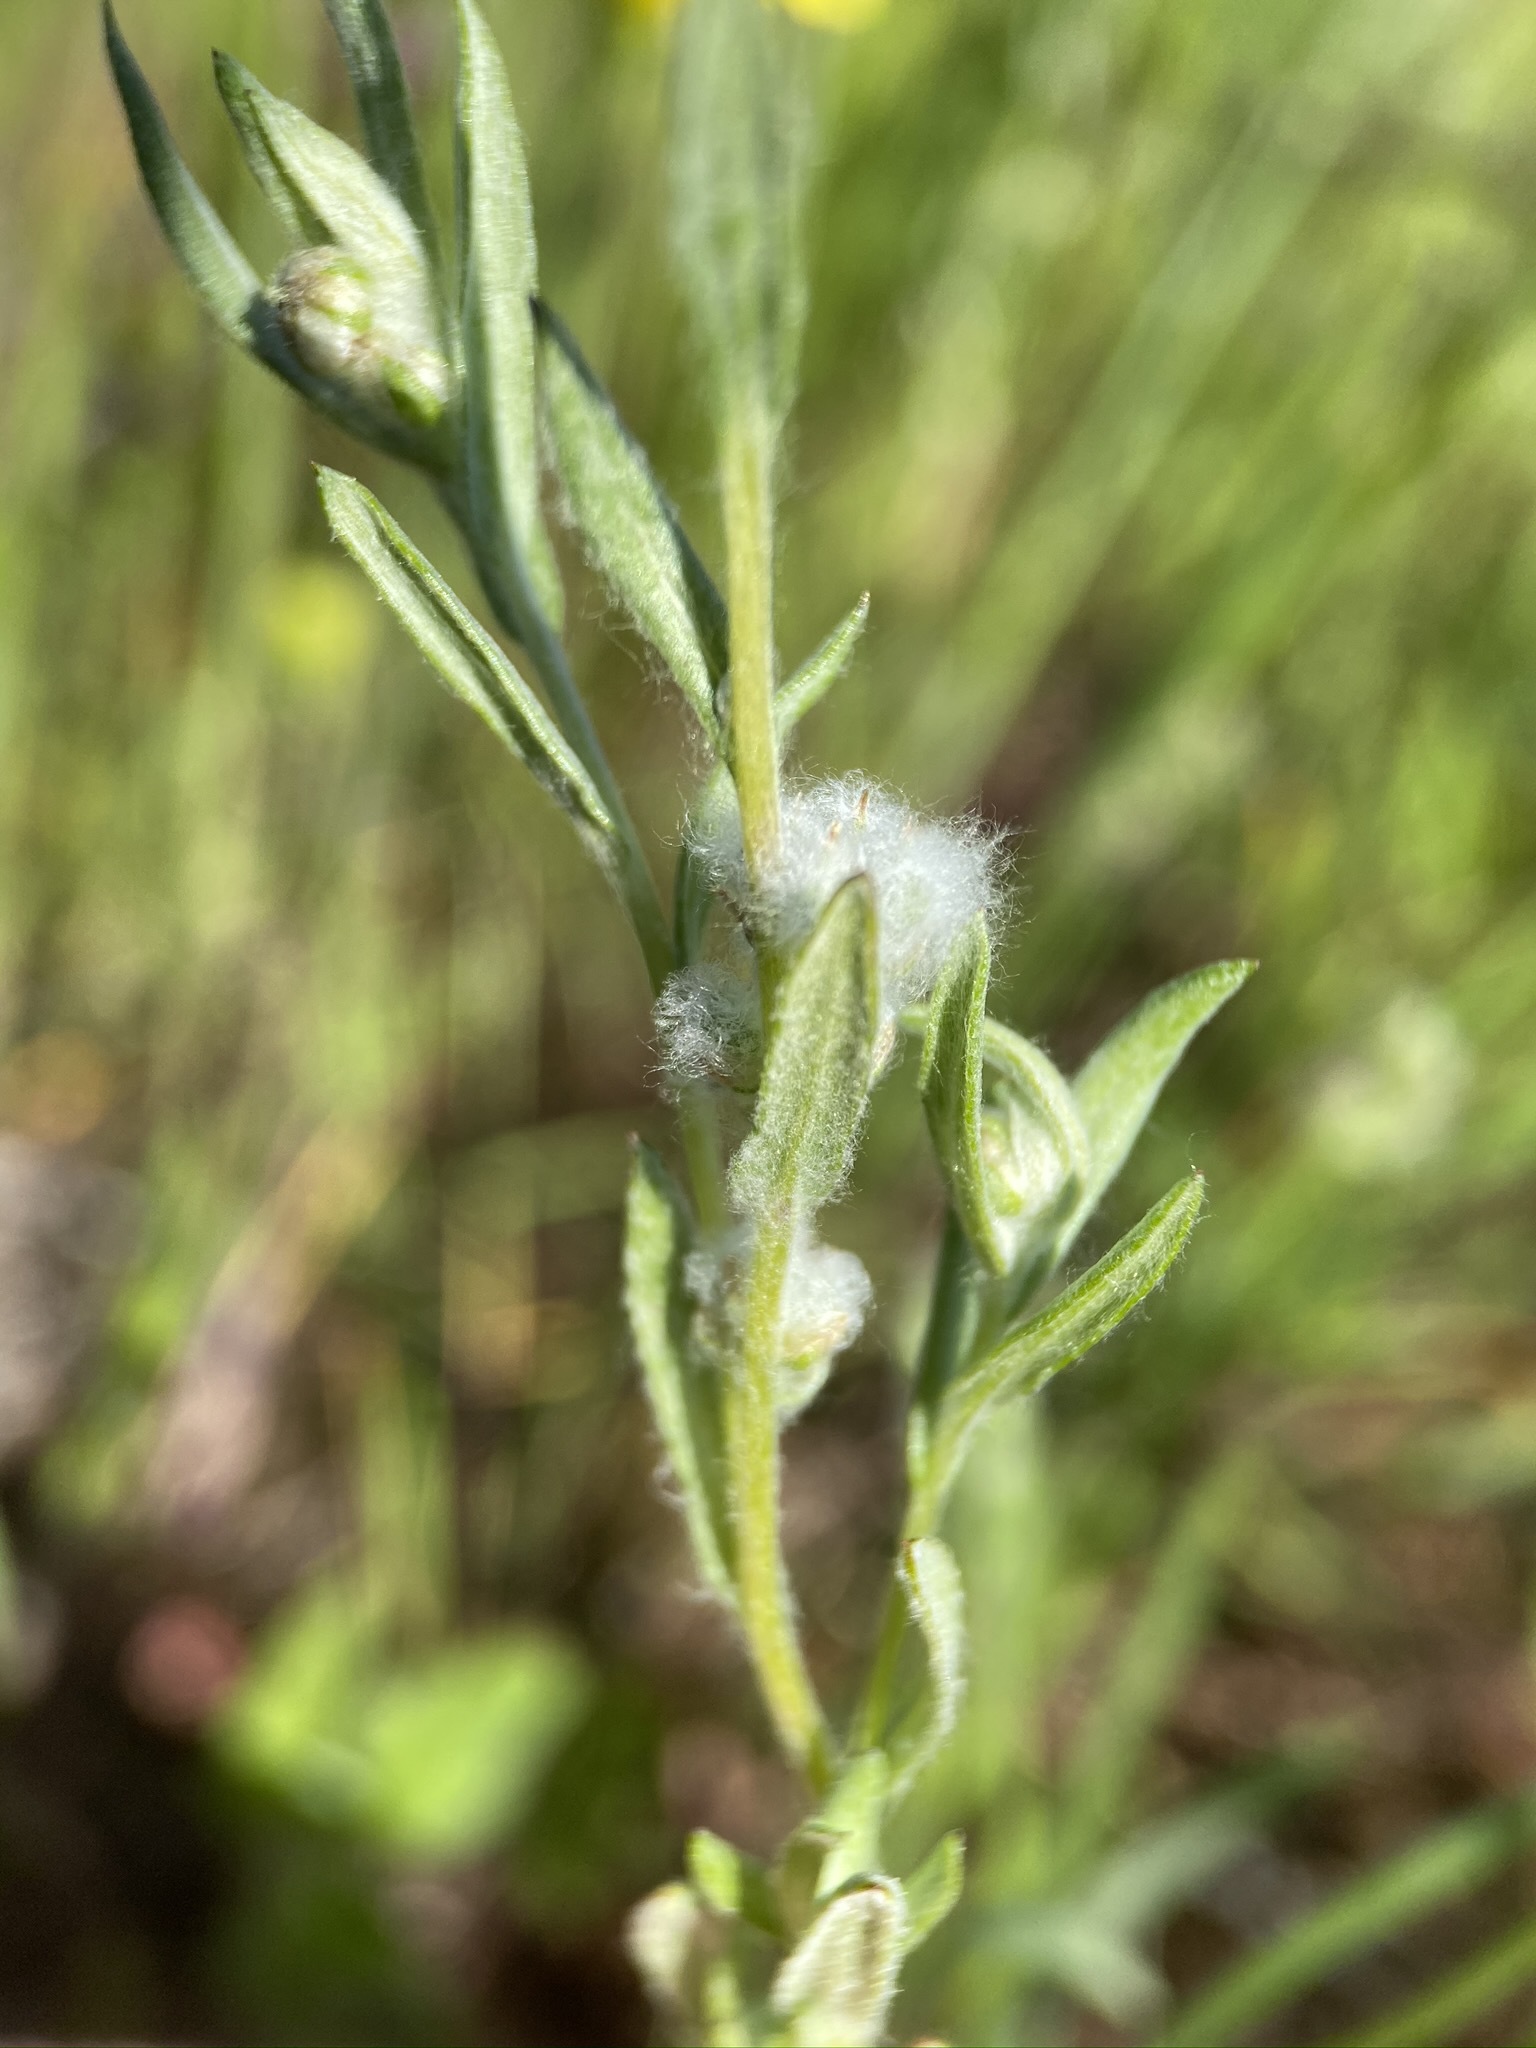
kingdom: Plantae
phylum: Tracheophyta
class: Magnoliopsida
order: Asterales
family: Asteraceae
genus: Bombycilaena
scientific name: Bombycilaena californica
